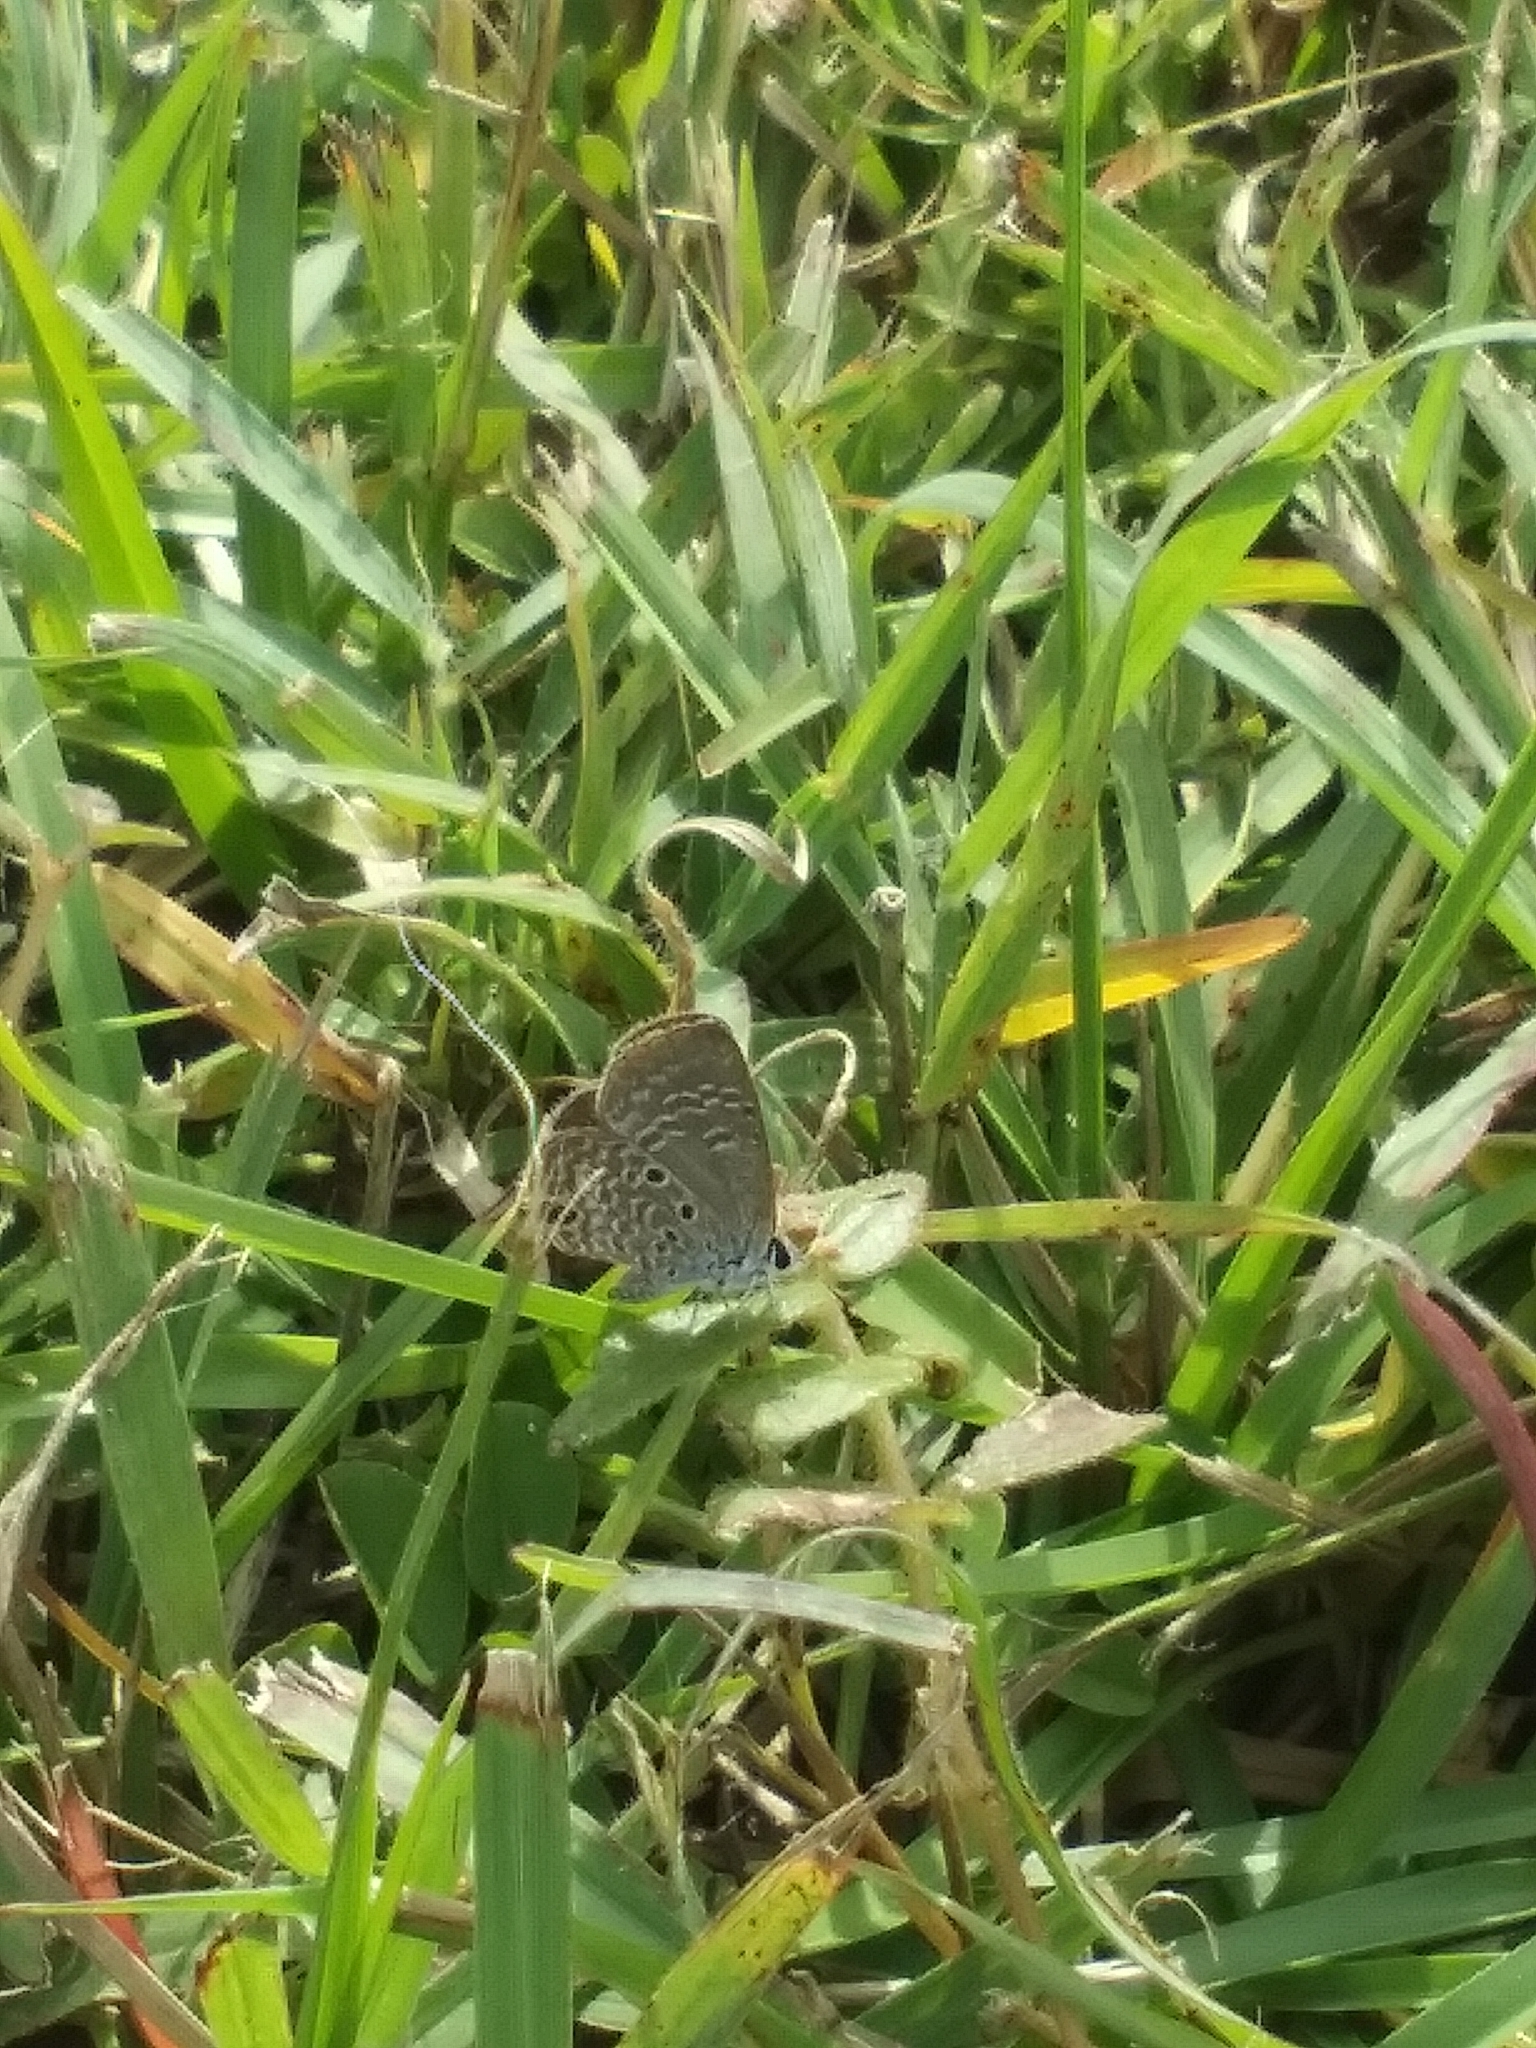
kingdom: Animalia
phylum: Arthropoda
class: Insecta
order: Lepidoptera
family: Lycaenidae
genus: Hemiargus
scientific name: Hemiargus ceraunus
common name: Ceraunus blue
